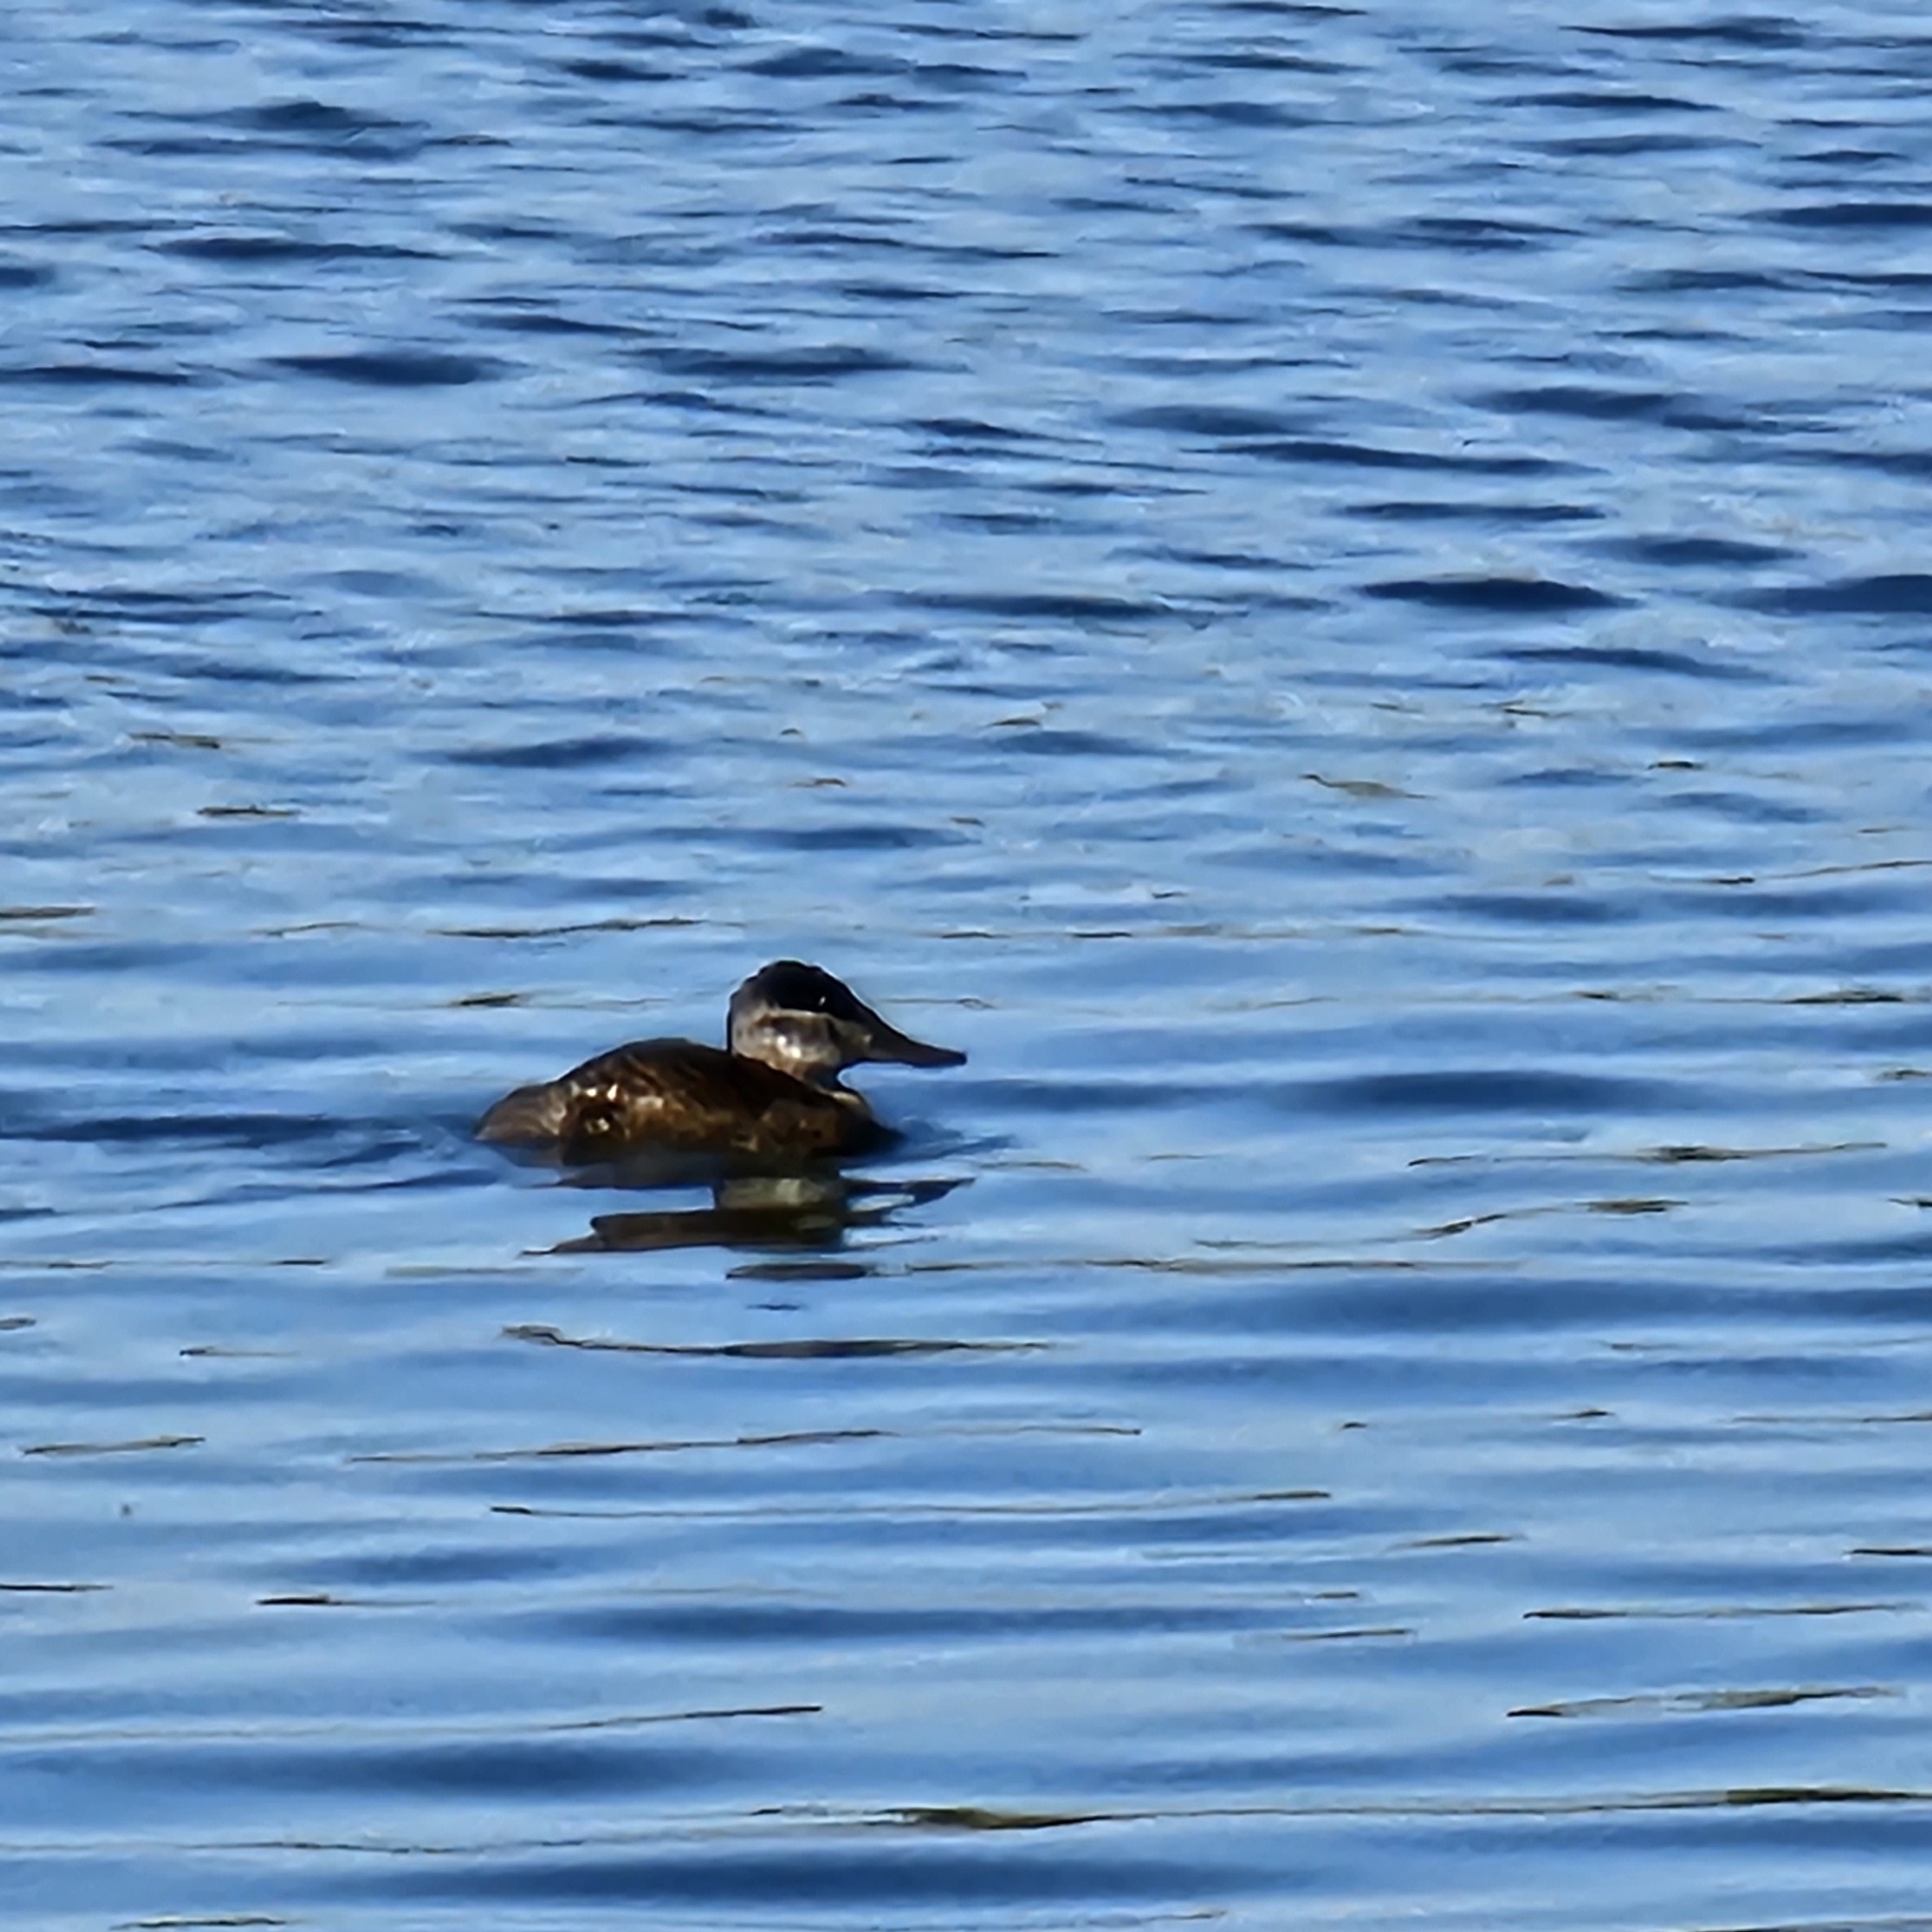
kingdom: Animalia
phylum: Chordata
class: Aves
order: Anseriformes
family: Anatidae
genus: Oxyura
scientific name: Oxyura jamaicensis
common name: Ruddy duck
